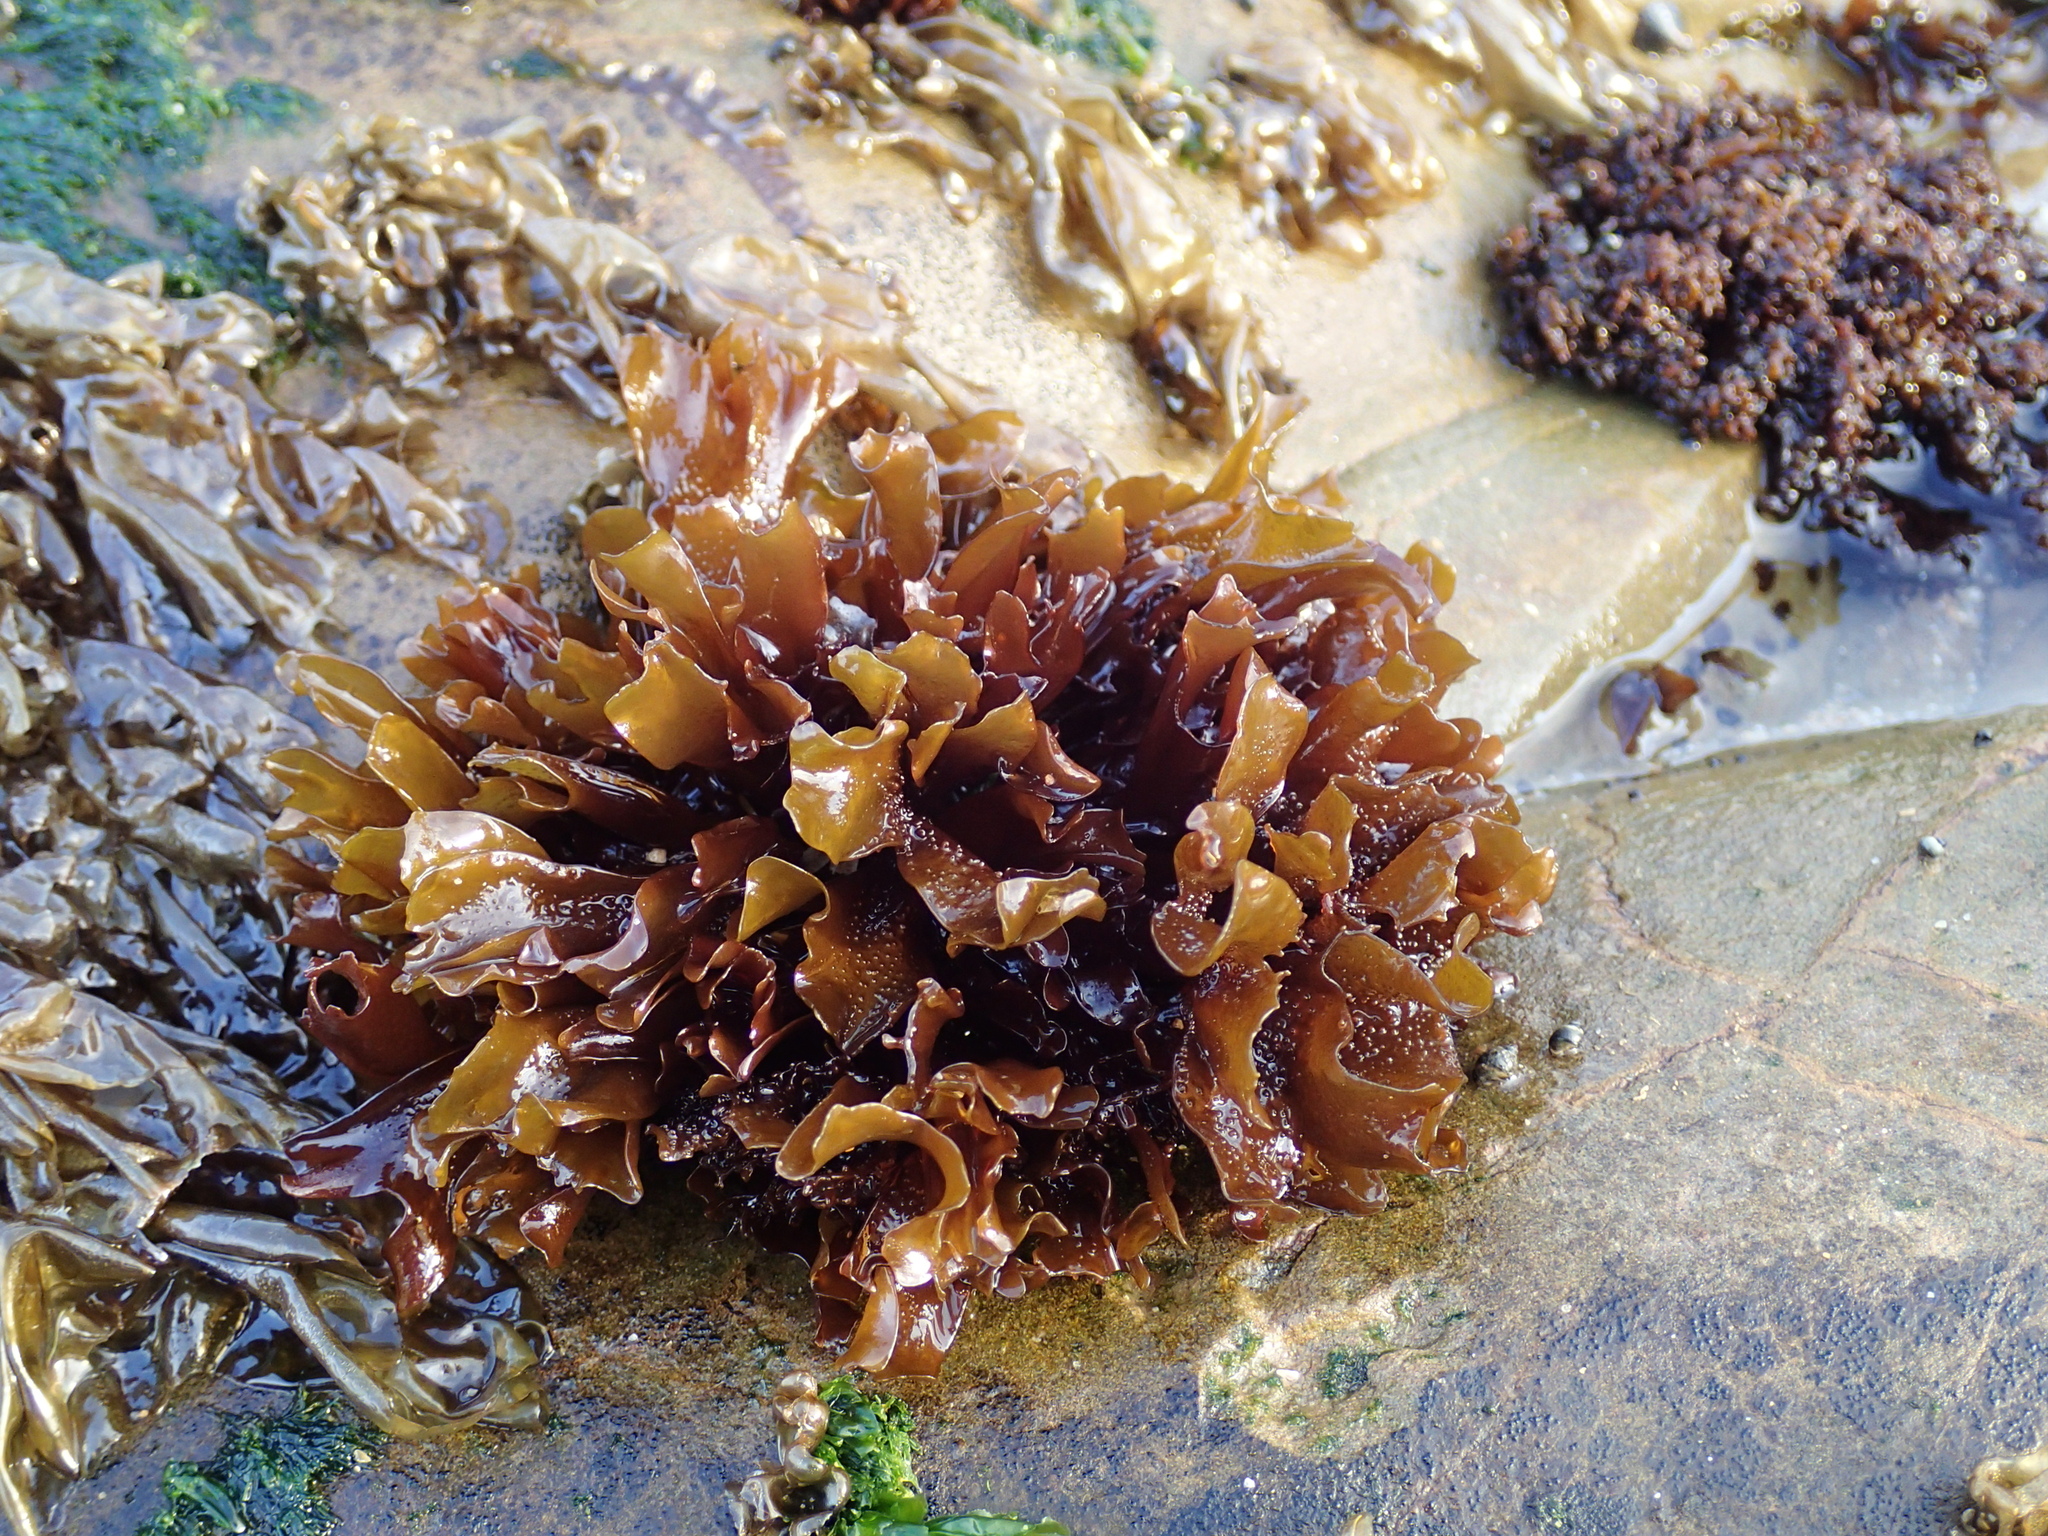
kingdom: Plantae
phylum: Rhodophyta
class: Florideophyceae
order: Gigartinales
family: Phyllophoraceae
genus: Mastocarpus
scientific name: Mastocarpus papillatus
